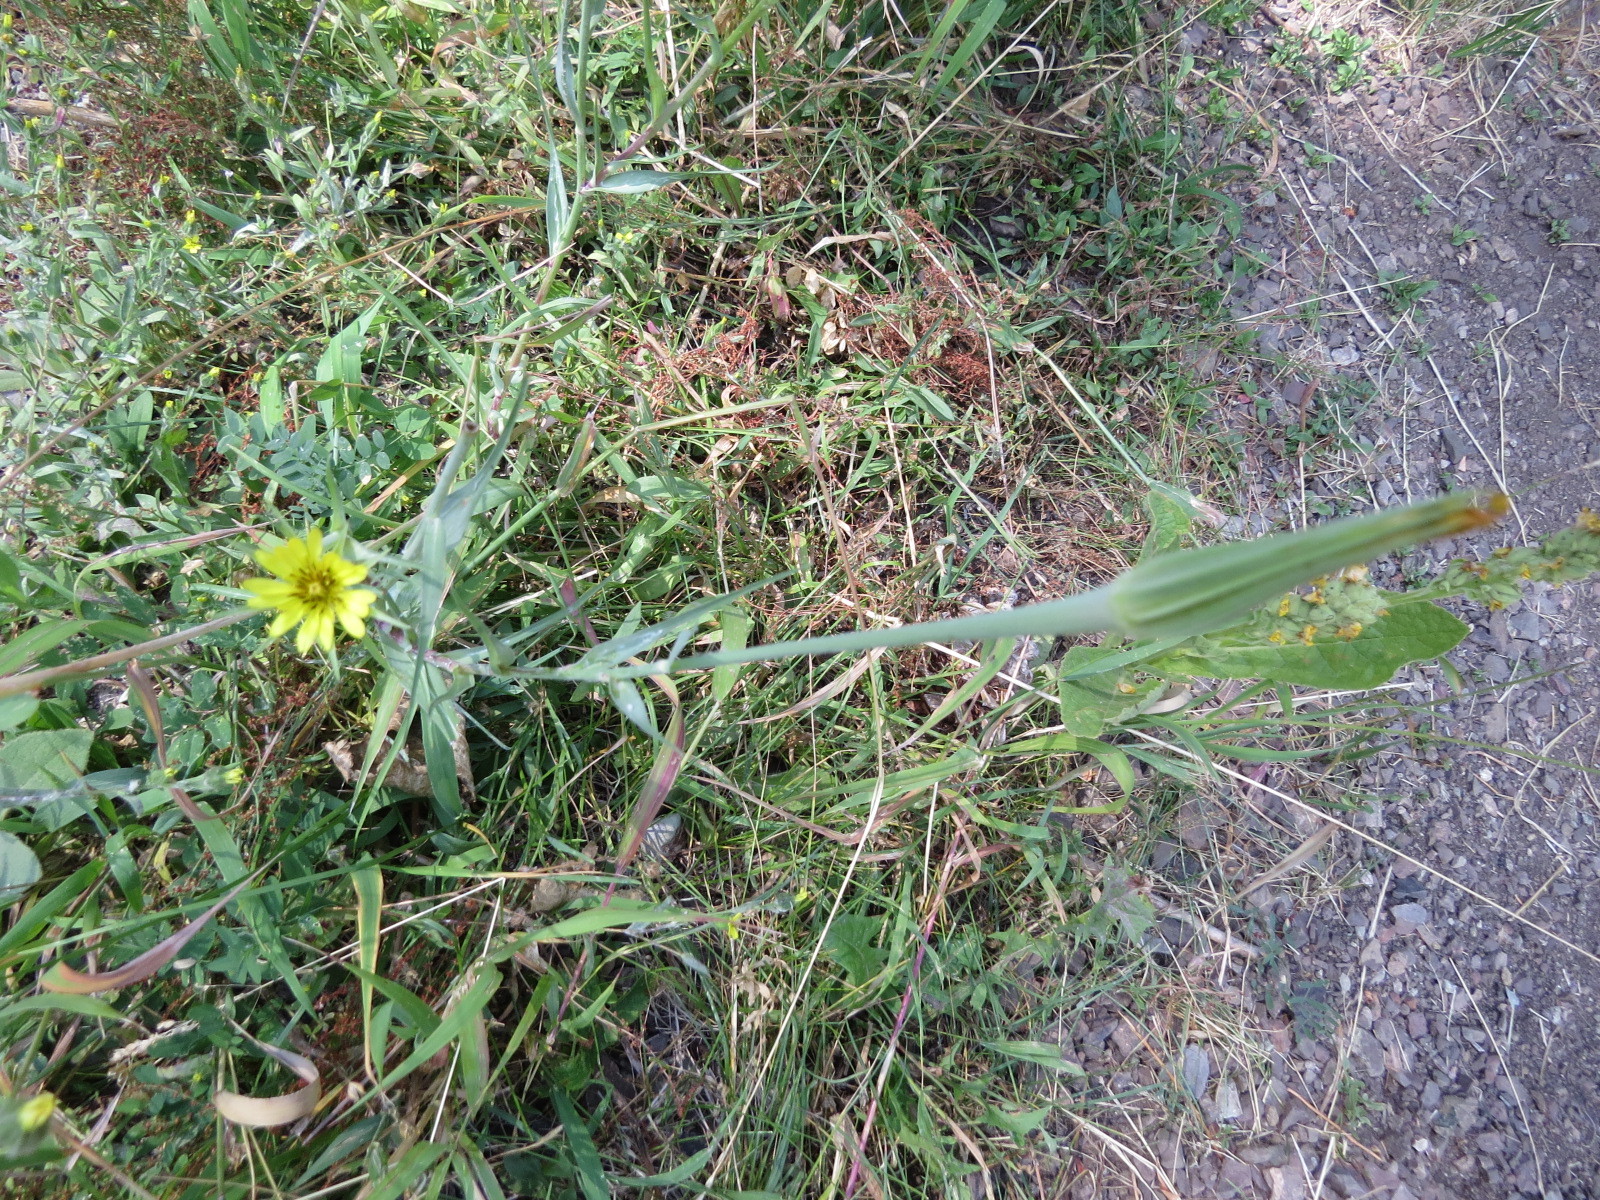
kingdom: Plantae
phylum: Tracheophyta
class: Magnoliopsida
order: Asterales
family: Asteraceae
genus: Tragopogon
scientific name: Tragopogon dubius
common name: Yellow salsify
